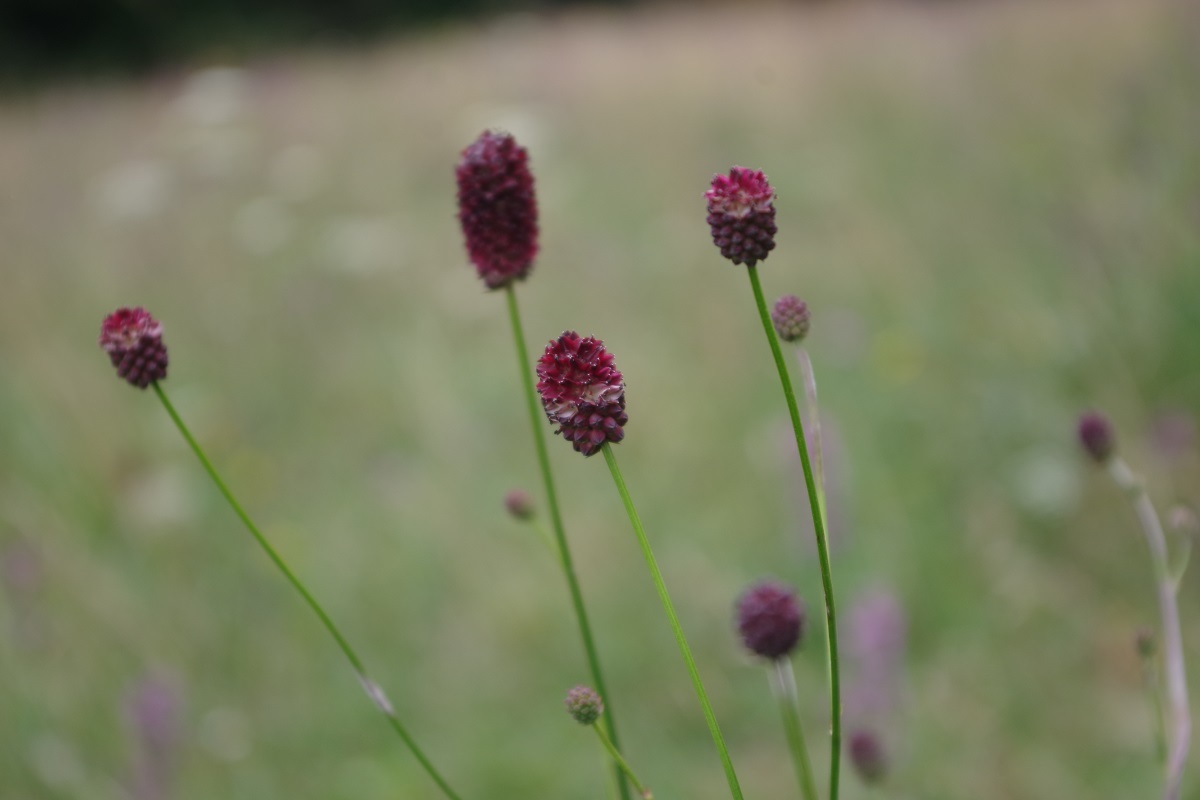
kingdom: Plantae
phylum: Tracheophyta
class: Magnoliopsida
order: Rosales
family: Rosaceae
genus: Sanguisorba
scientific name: Sanguisorba officinalis
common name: Great burnet
